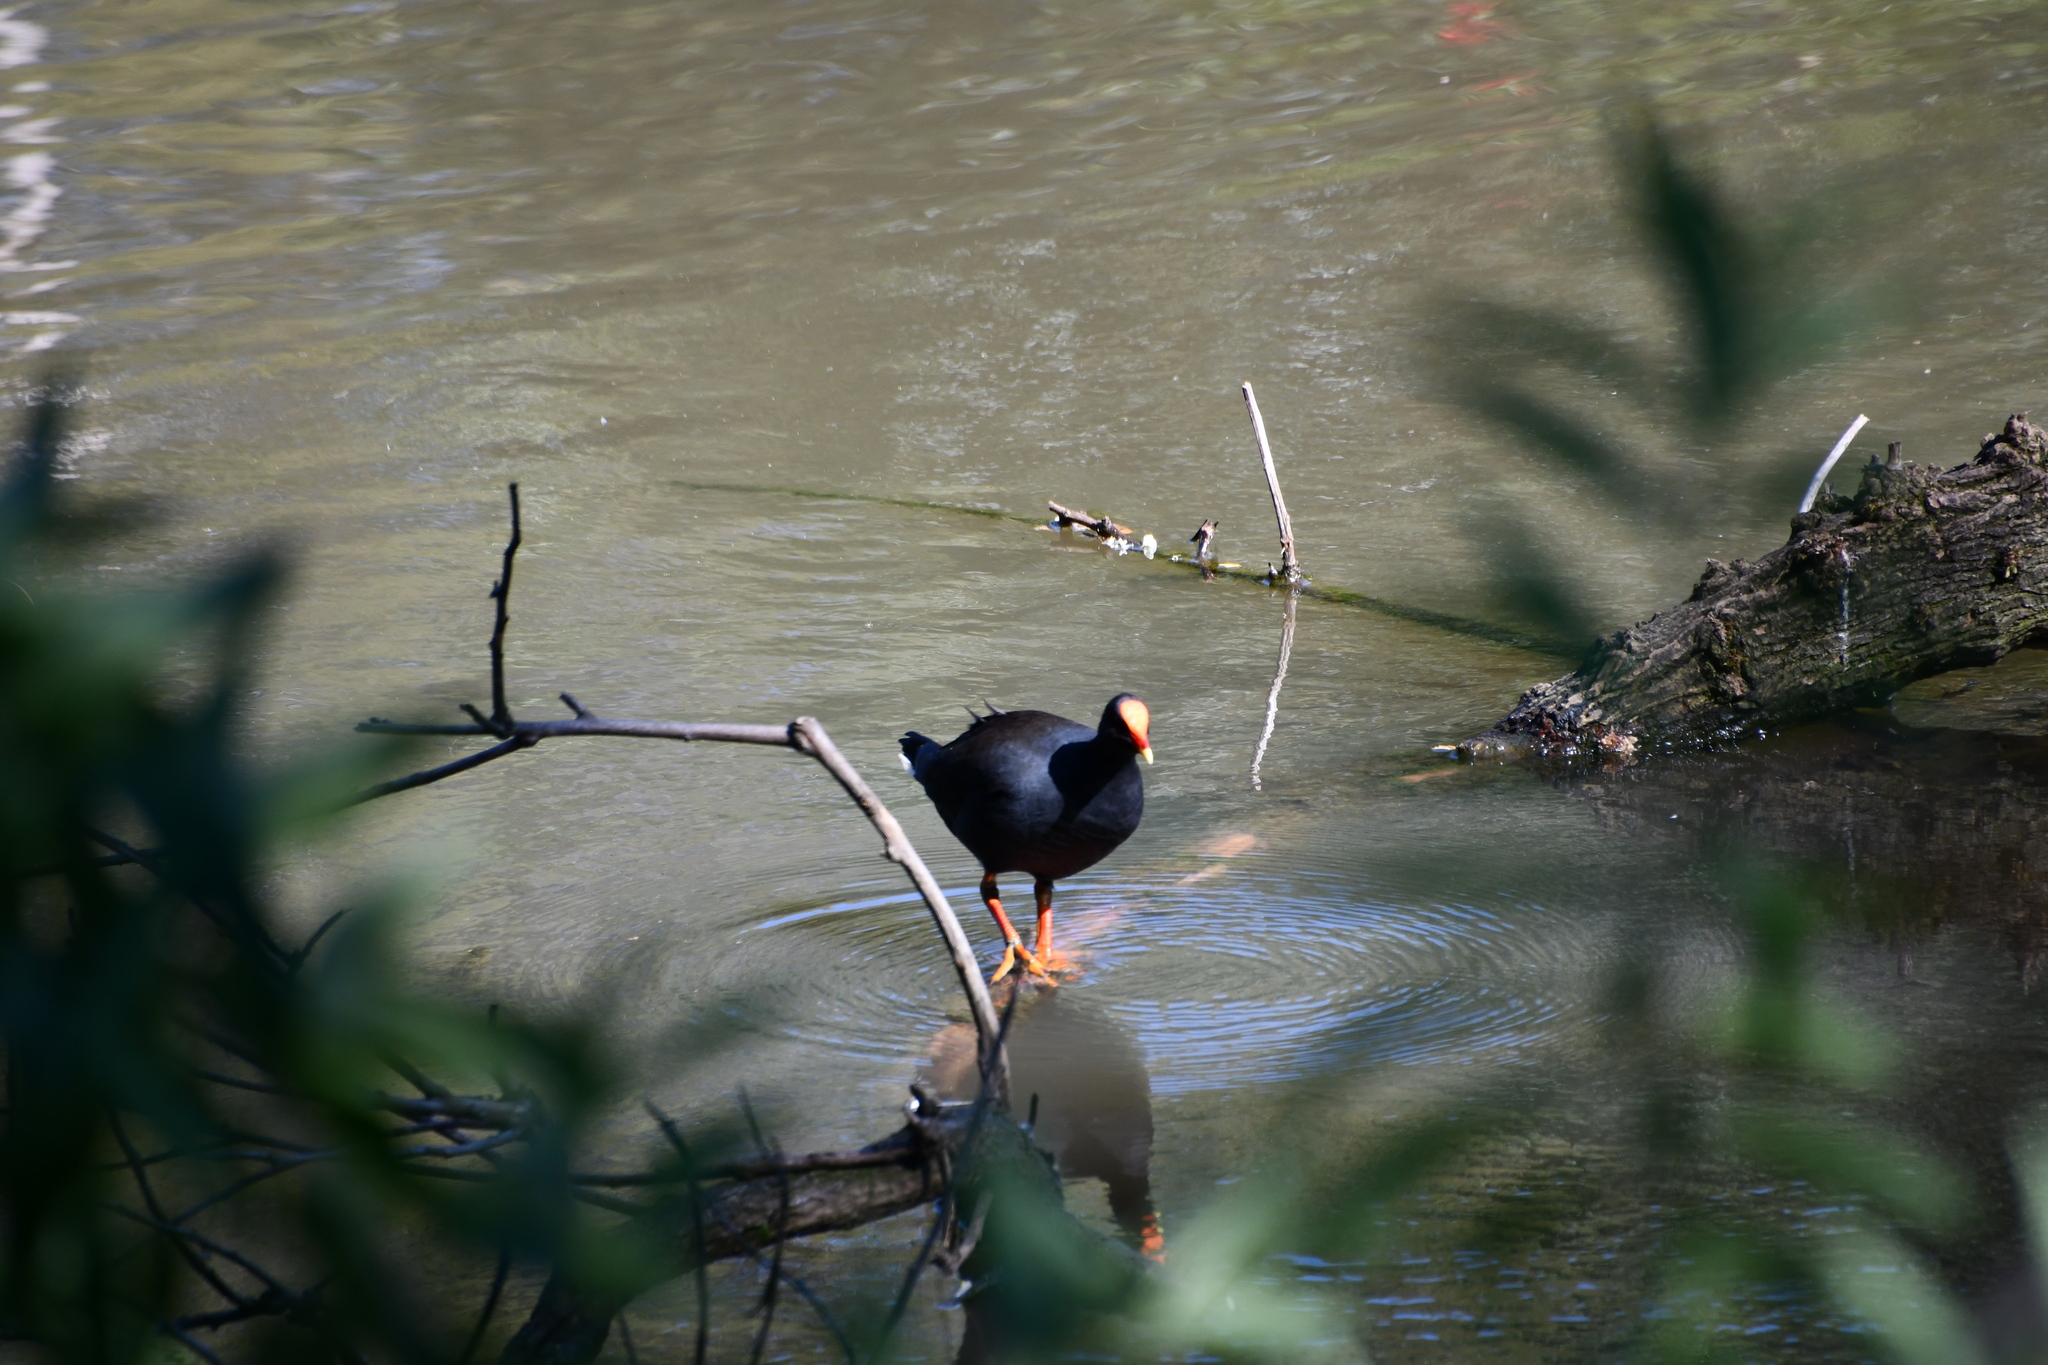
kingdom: Animalia
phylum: Chordata
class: Aves
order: Gruiformes
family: Rallidae
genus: Gallinula
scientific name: Gallinula tenebrosa
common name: Dusky moorhen
